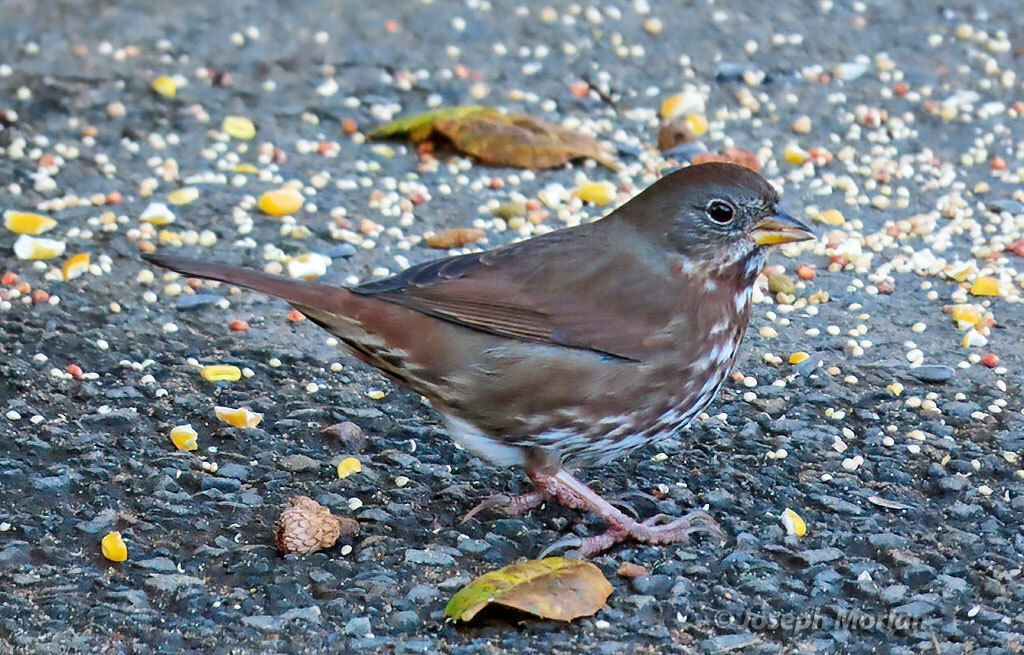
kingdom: Animalia
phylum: Chordata
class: Aves
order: Passeriformes
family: Passerellidae
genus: Passerella
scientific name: Passerella iliaca
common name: Fox sparrow
